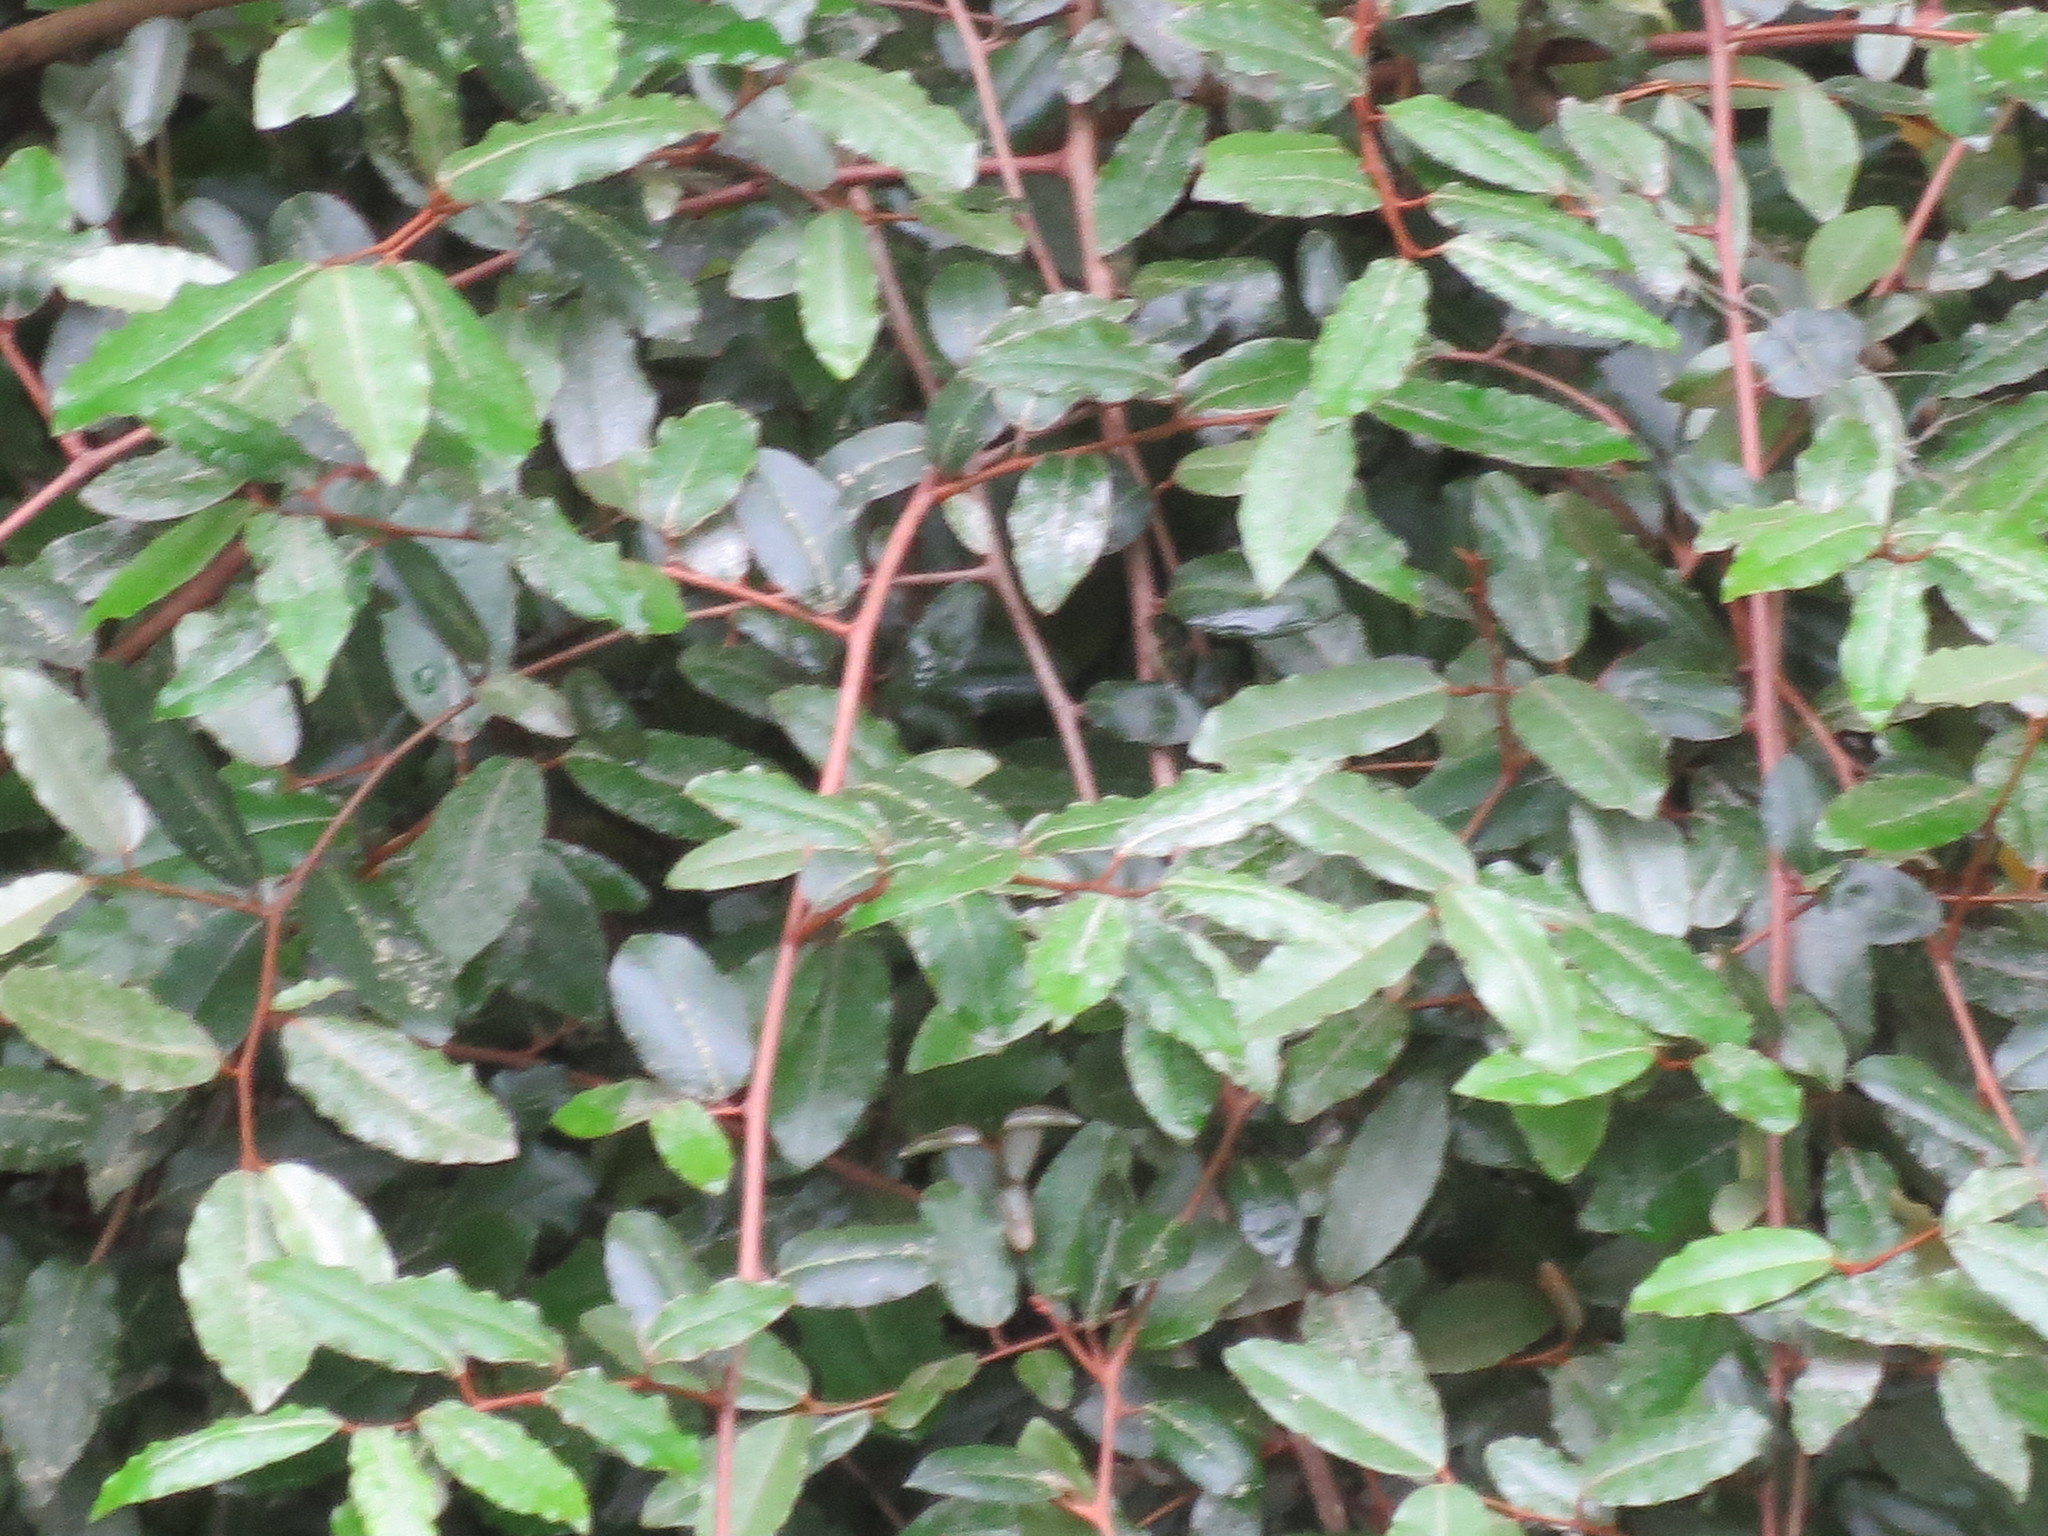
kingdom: Plantae
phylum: Tracheophyta
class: Magnoliopsida
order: Rosales
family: Elaeagnaceae
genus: Elaeagnus
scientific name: Elaeagnus pungens
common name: Spiny oleaster
